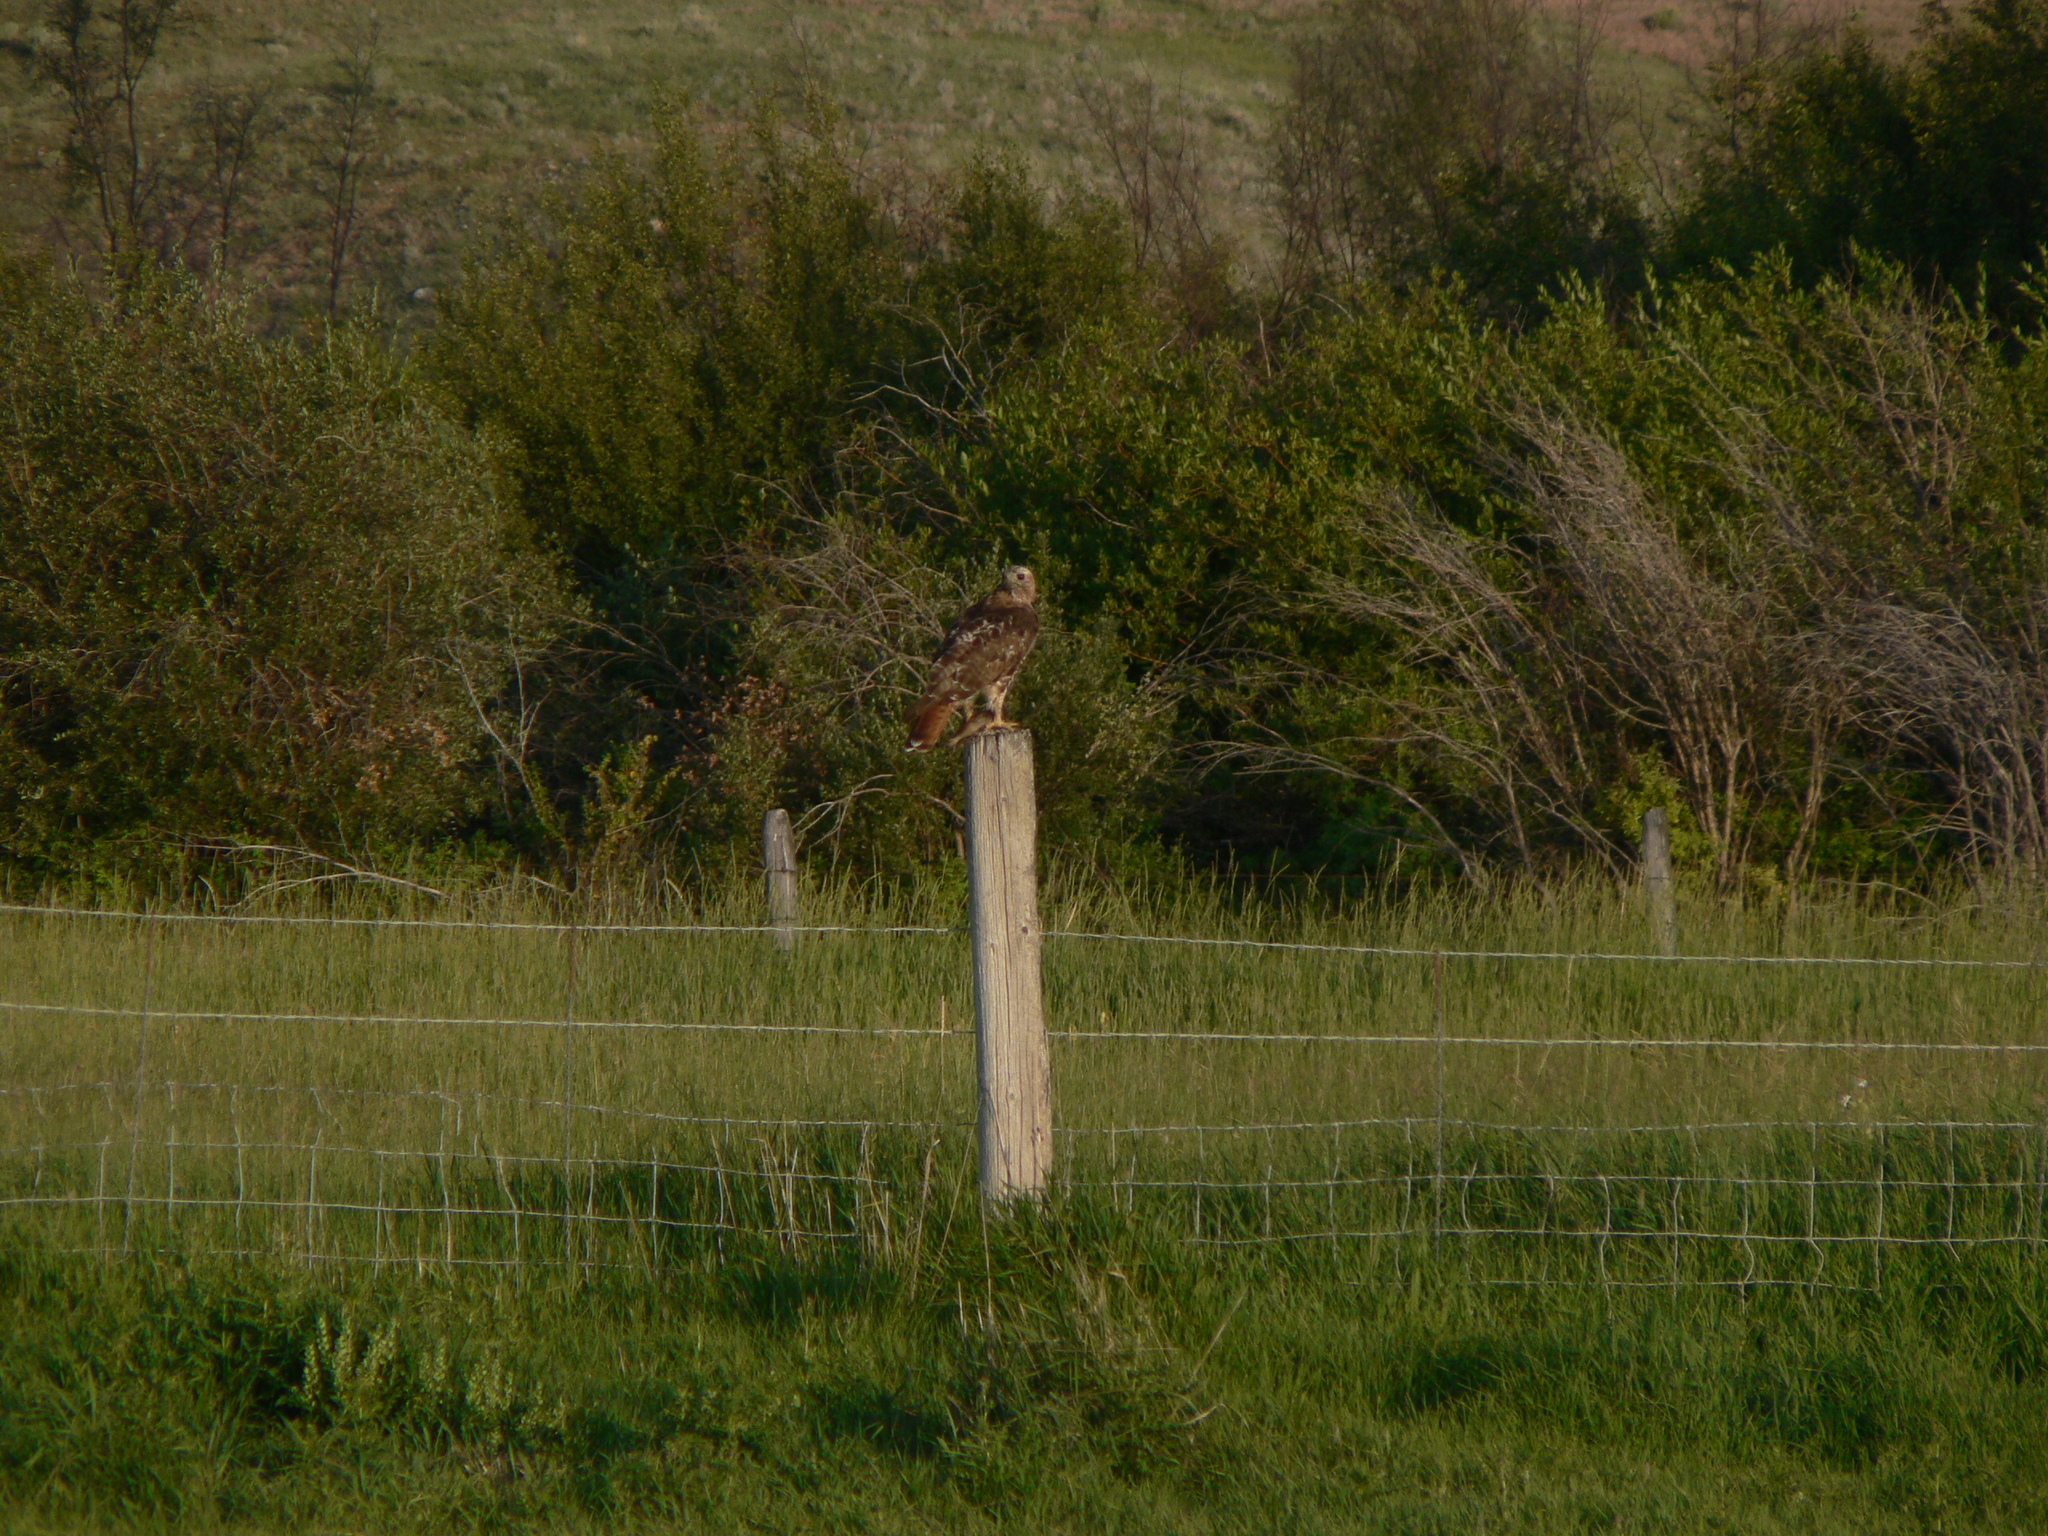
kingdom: Animalia
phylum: Chordata
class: Aves
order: Accipitriformes
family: Accipitridae
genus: Buteo
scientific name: Buteo jamaicensis
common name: Red-tailed hawk
